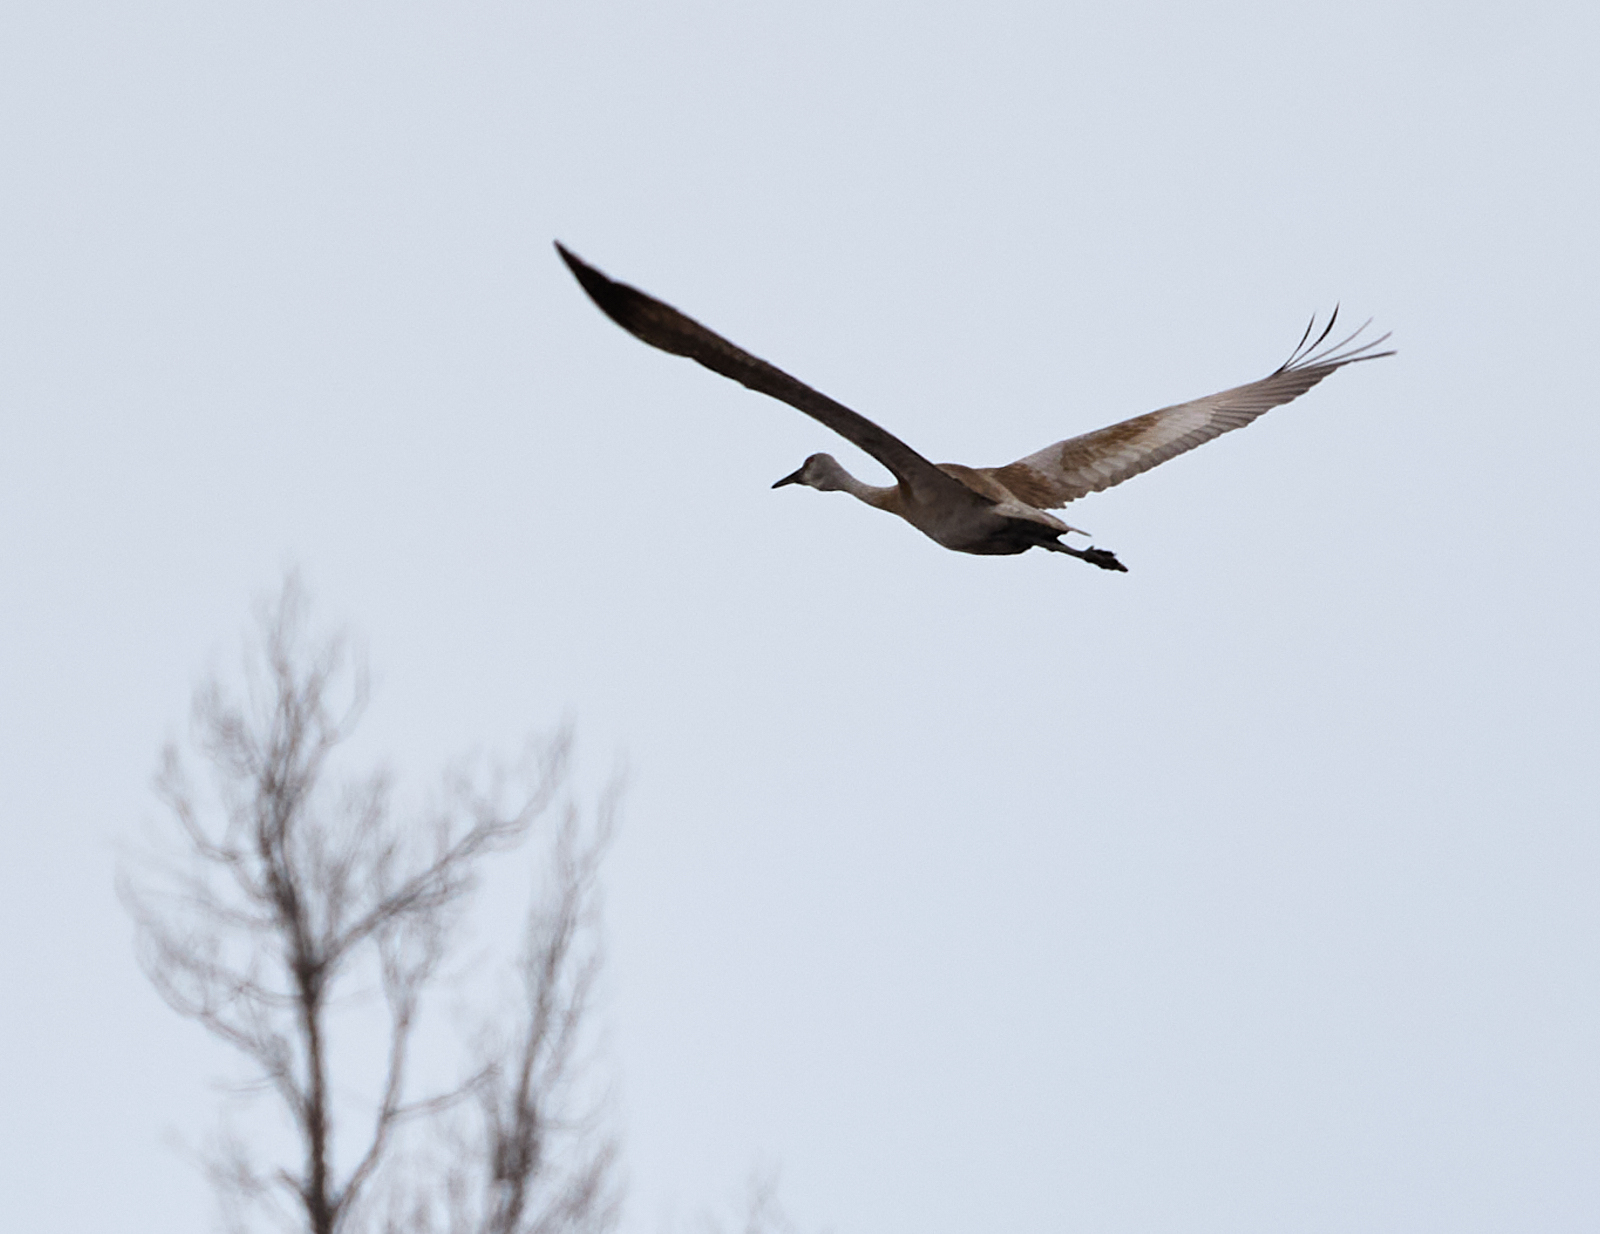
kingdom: Animalia
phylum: Chordata
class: Aves
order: Gruiformes
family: Gruidae
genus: Grus
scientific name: Grus canadensis
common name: Sandhill crane
